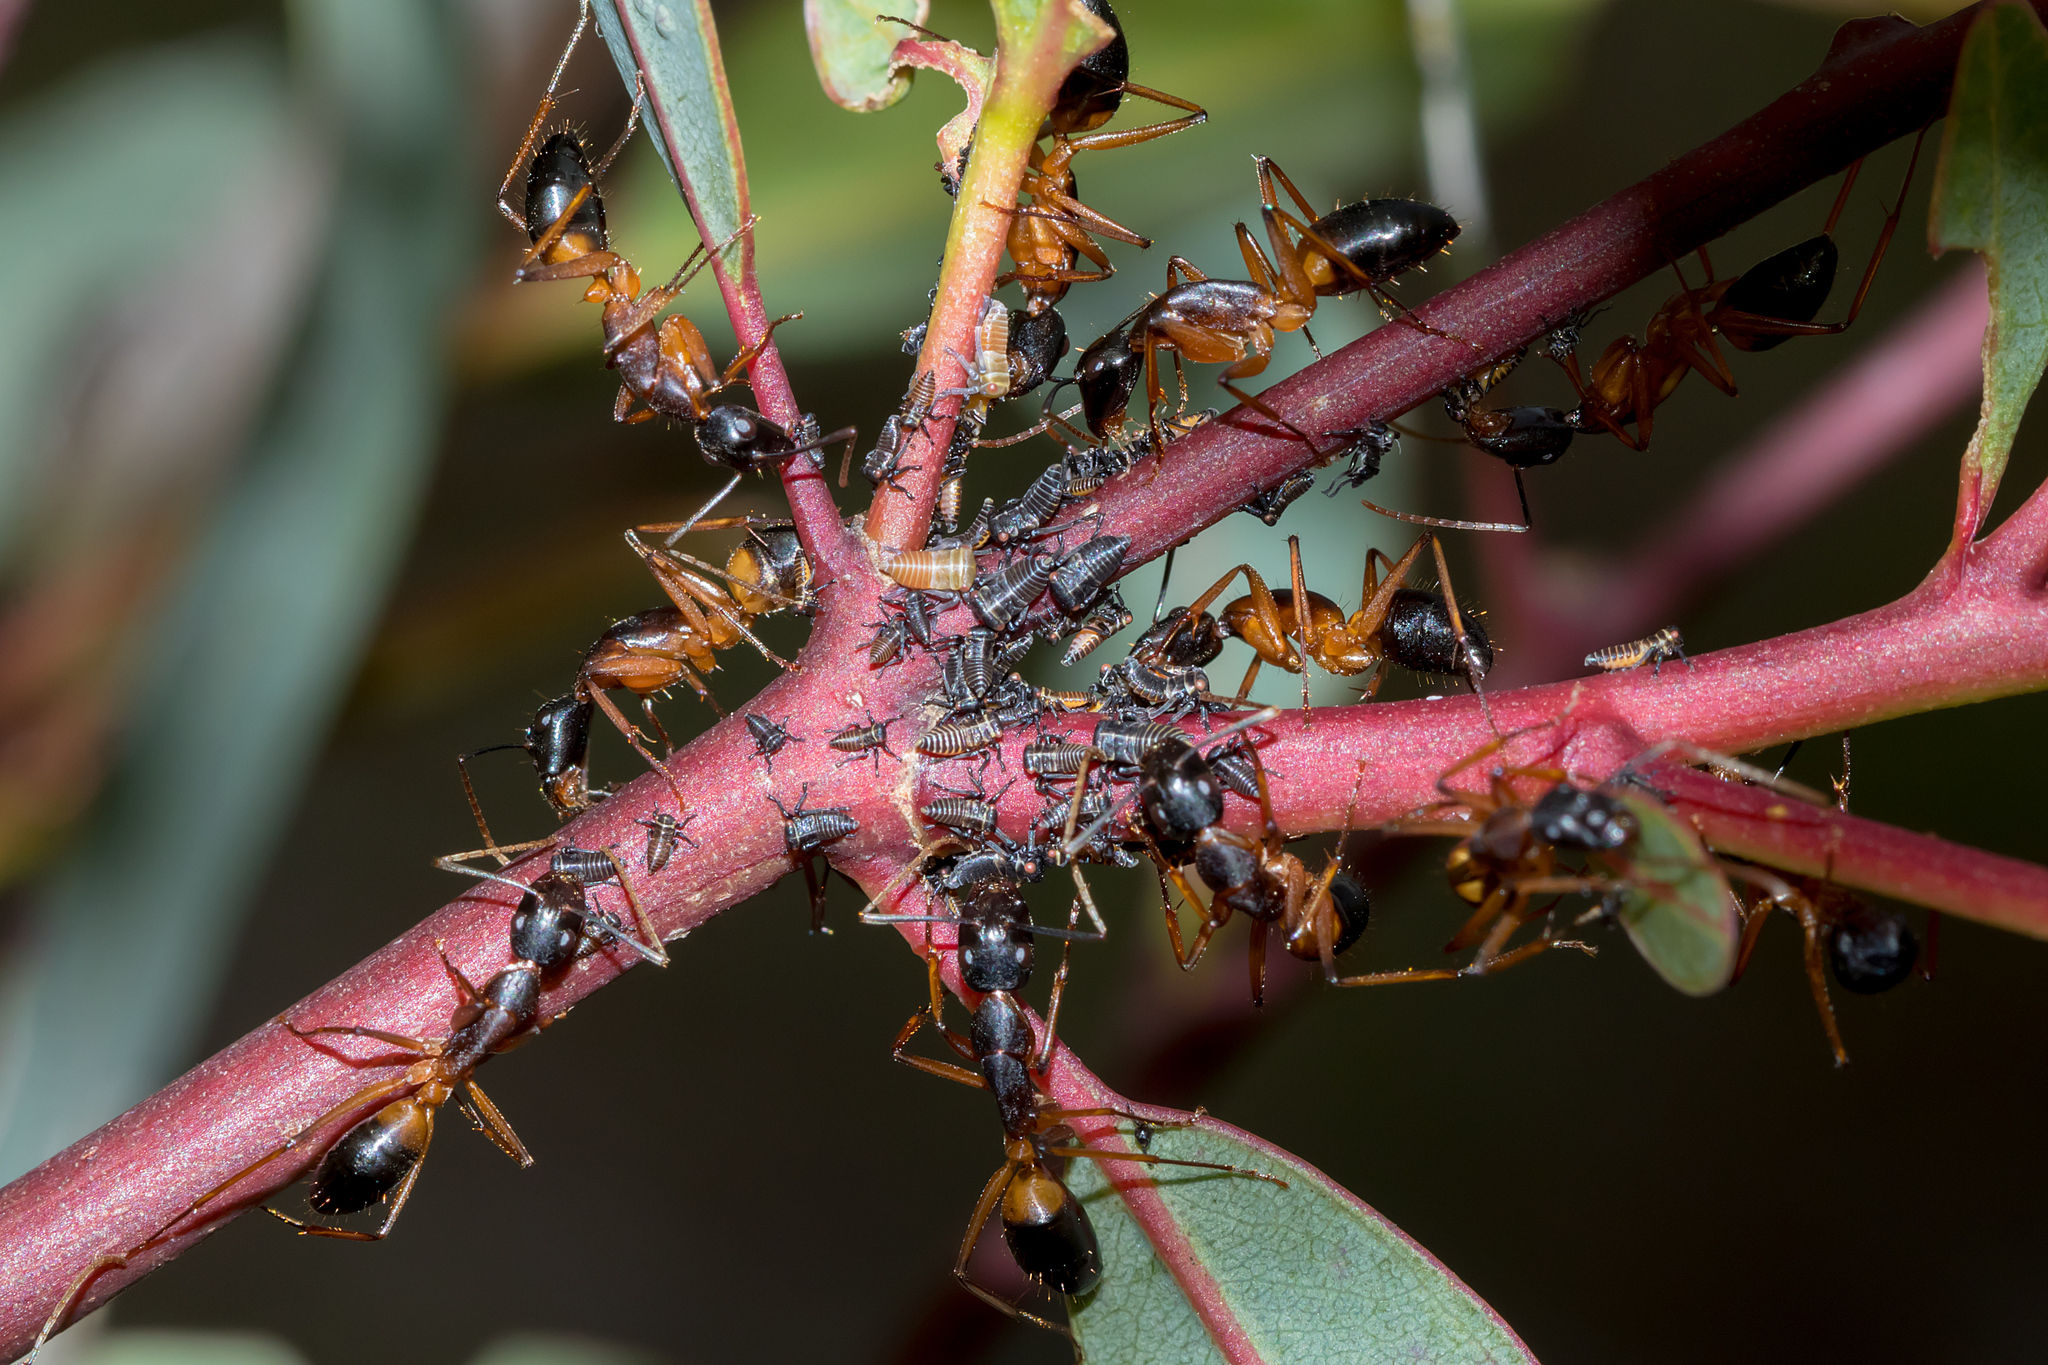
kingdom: Animalia
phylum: Arthropoda
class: Insecta
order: Hymenoptera
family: Formicidae
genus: Camponotus
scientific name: Camponotus consobrinus
